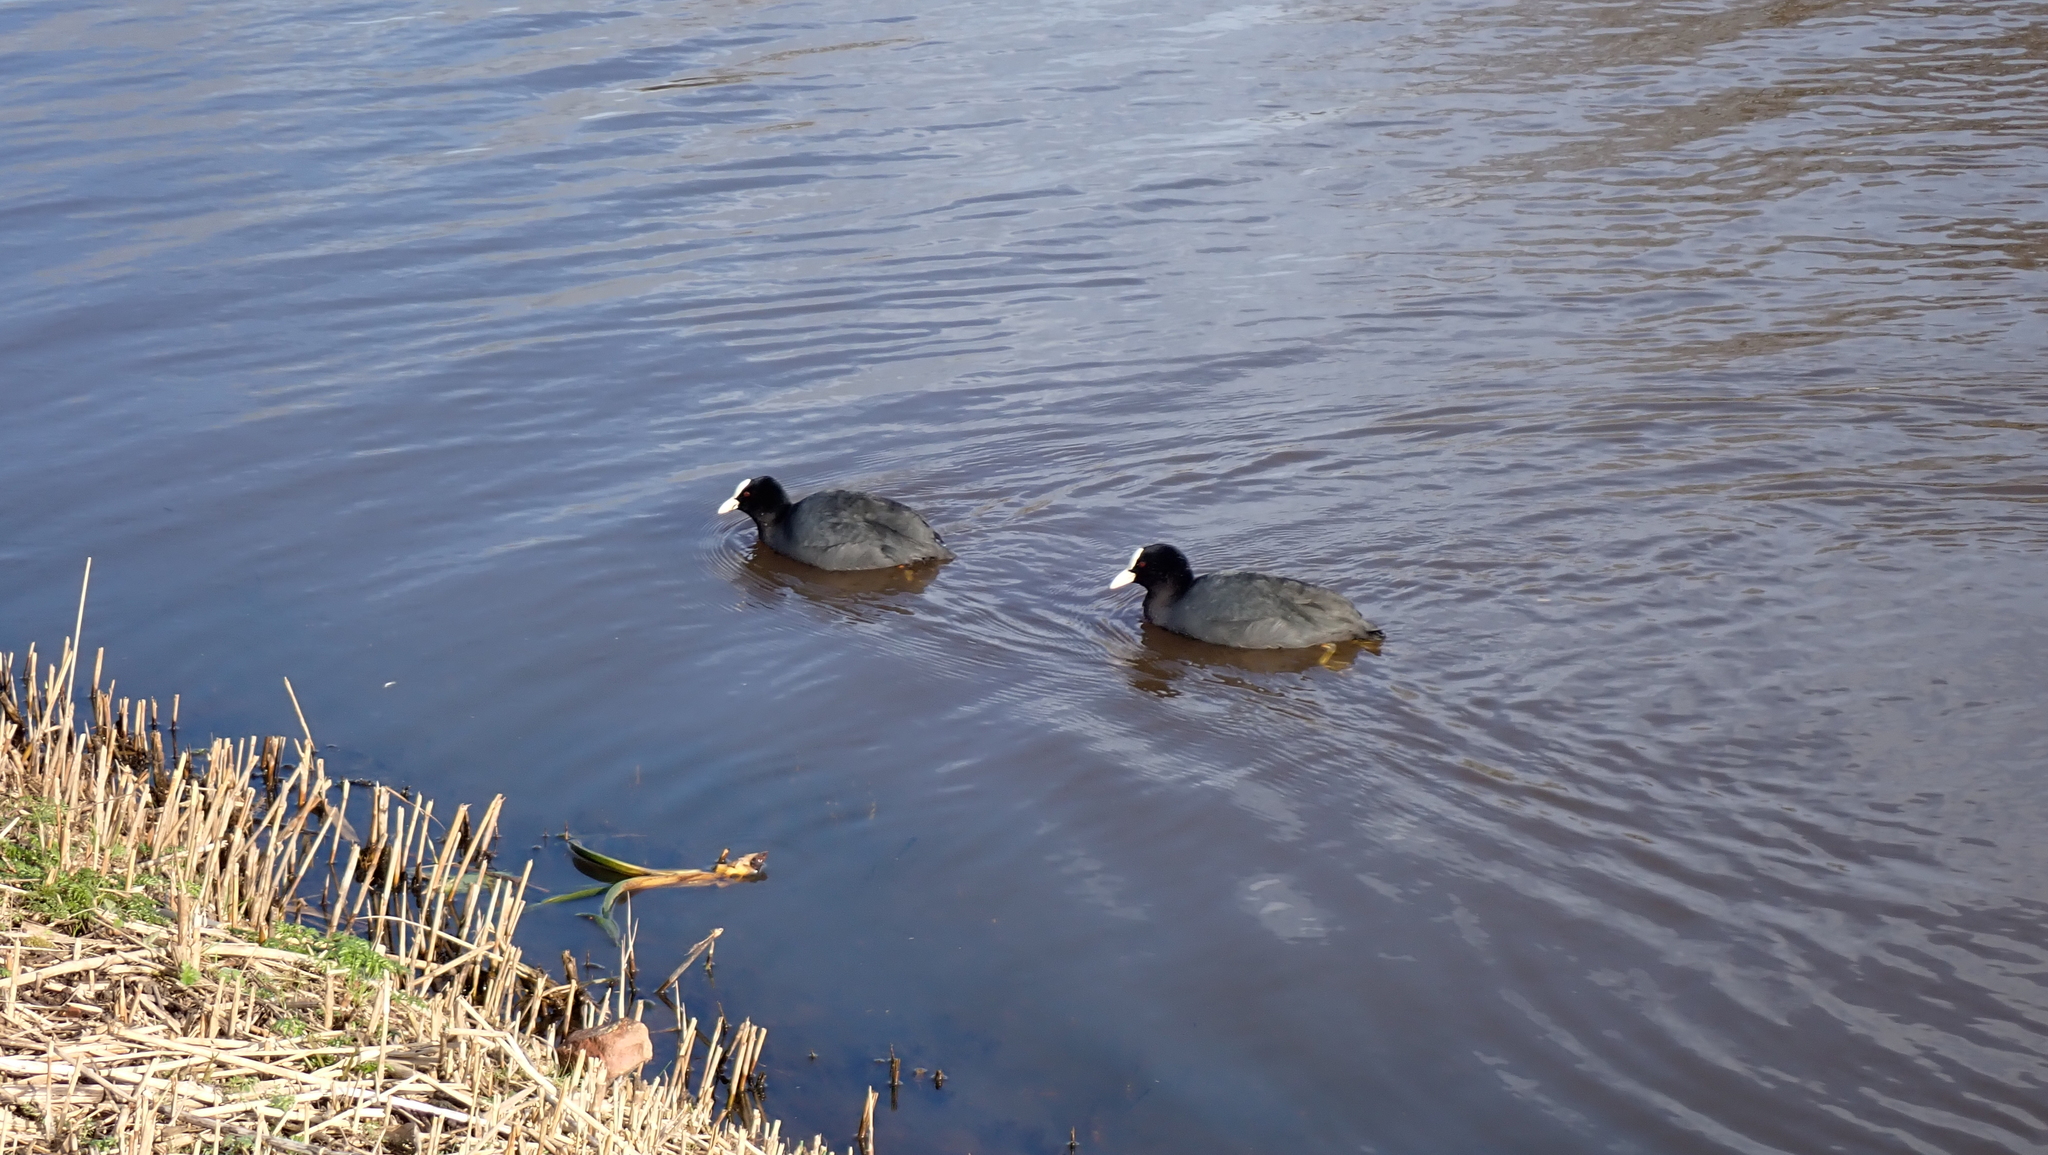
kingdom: Animalia
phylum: Chordata
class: Aves
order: Gruiformes
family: Rallidae
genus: Fulica
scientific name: Fulica atra
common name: Eurasian coot
